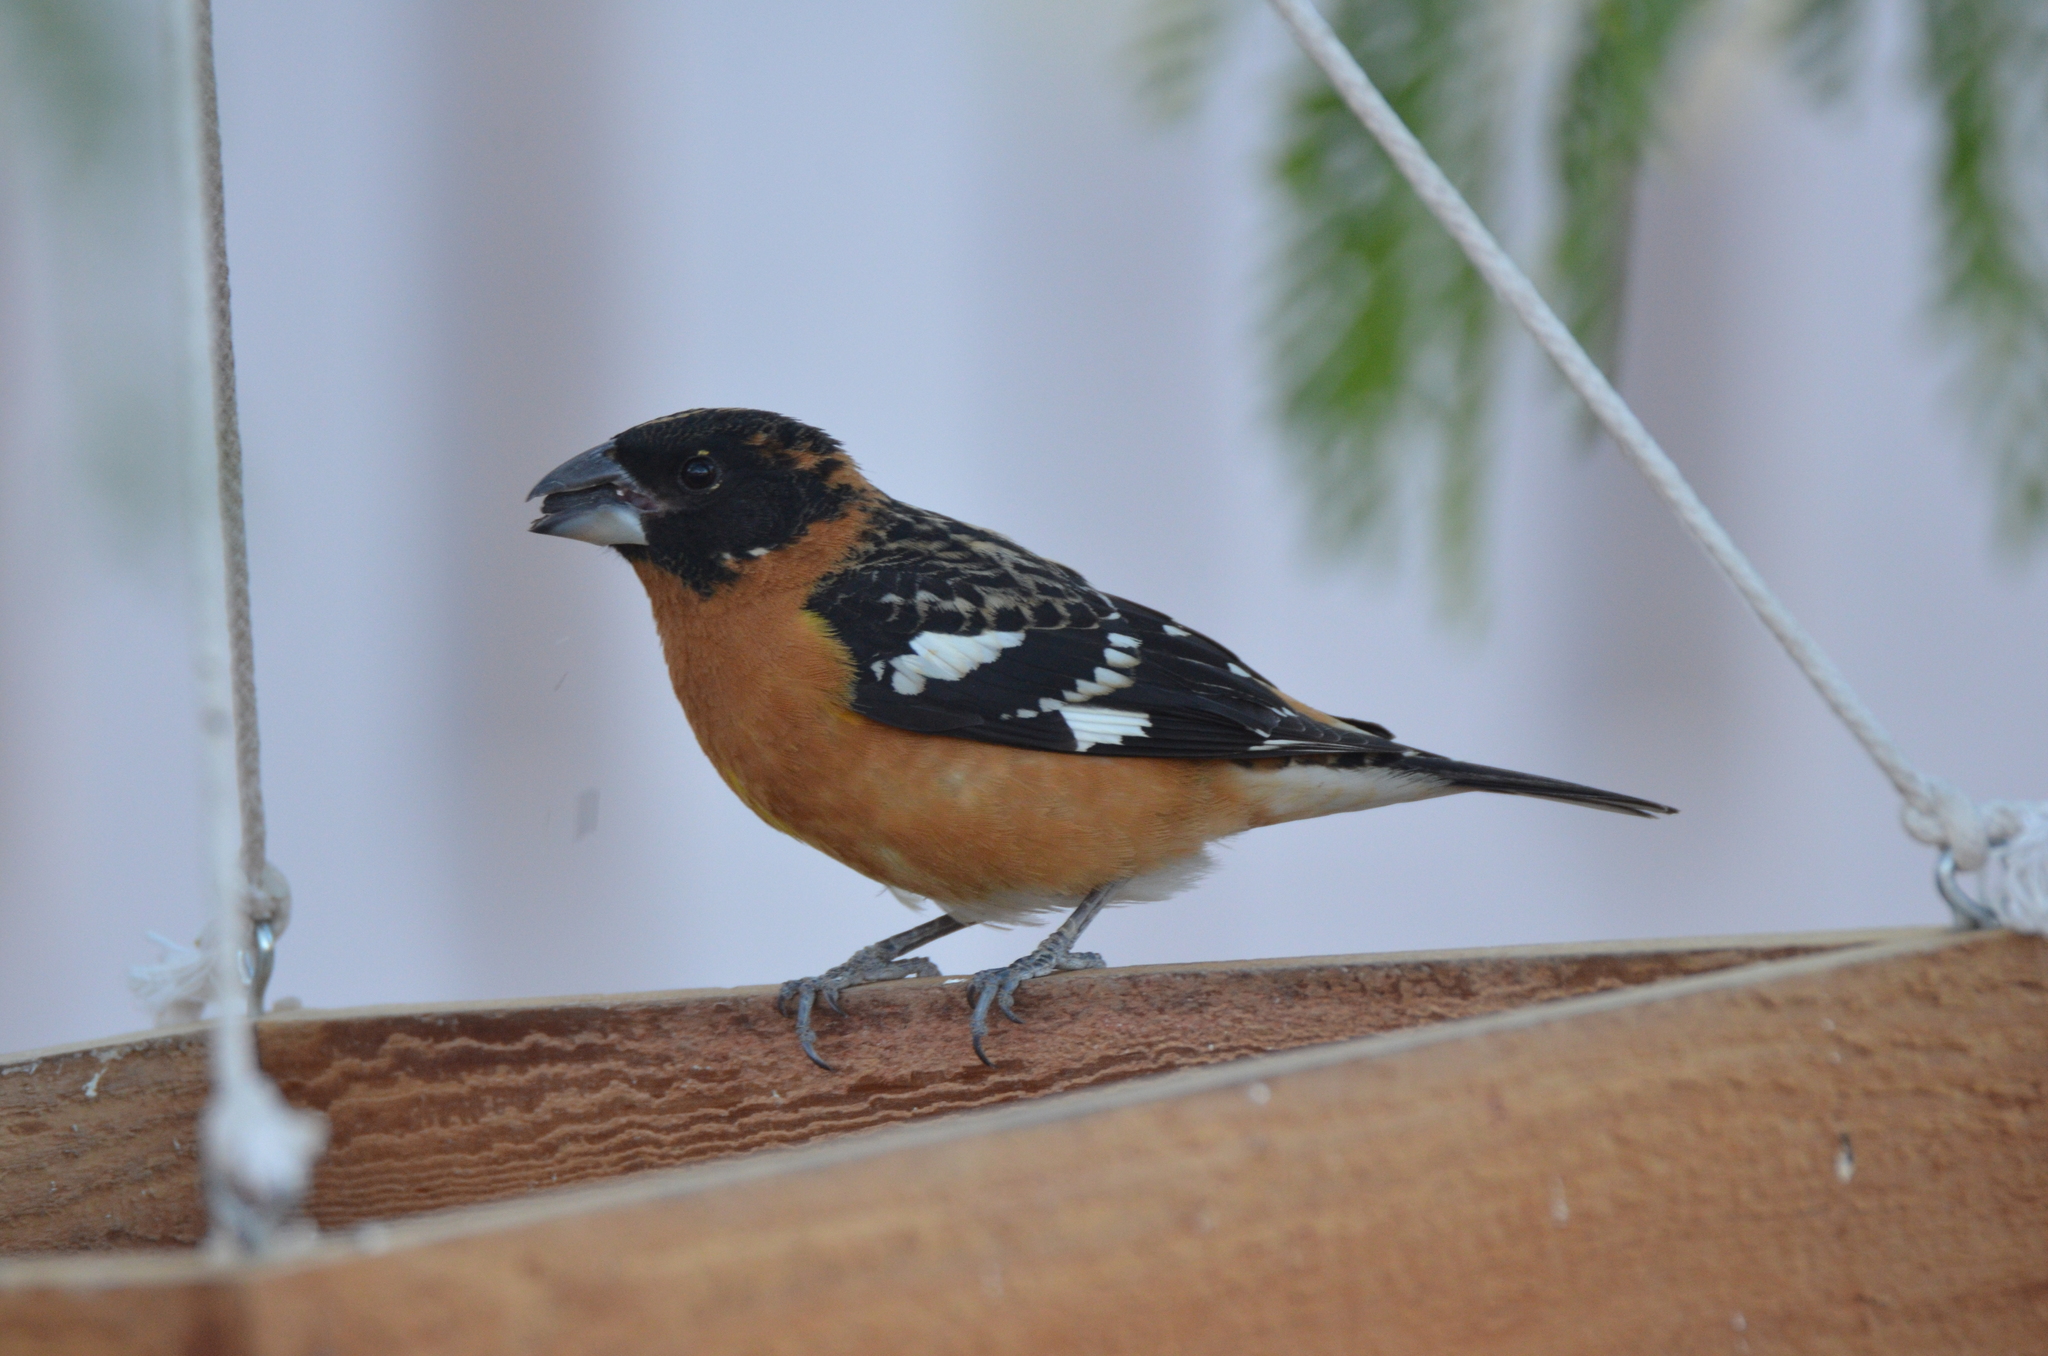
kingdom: Animalia
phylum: Chordata
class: Aves
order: Passeriformes
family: Cardinalidae
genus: Pheucticus
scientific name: Pheucticus melanocephalus
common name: Black-headed grosbeak
